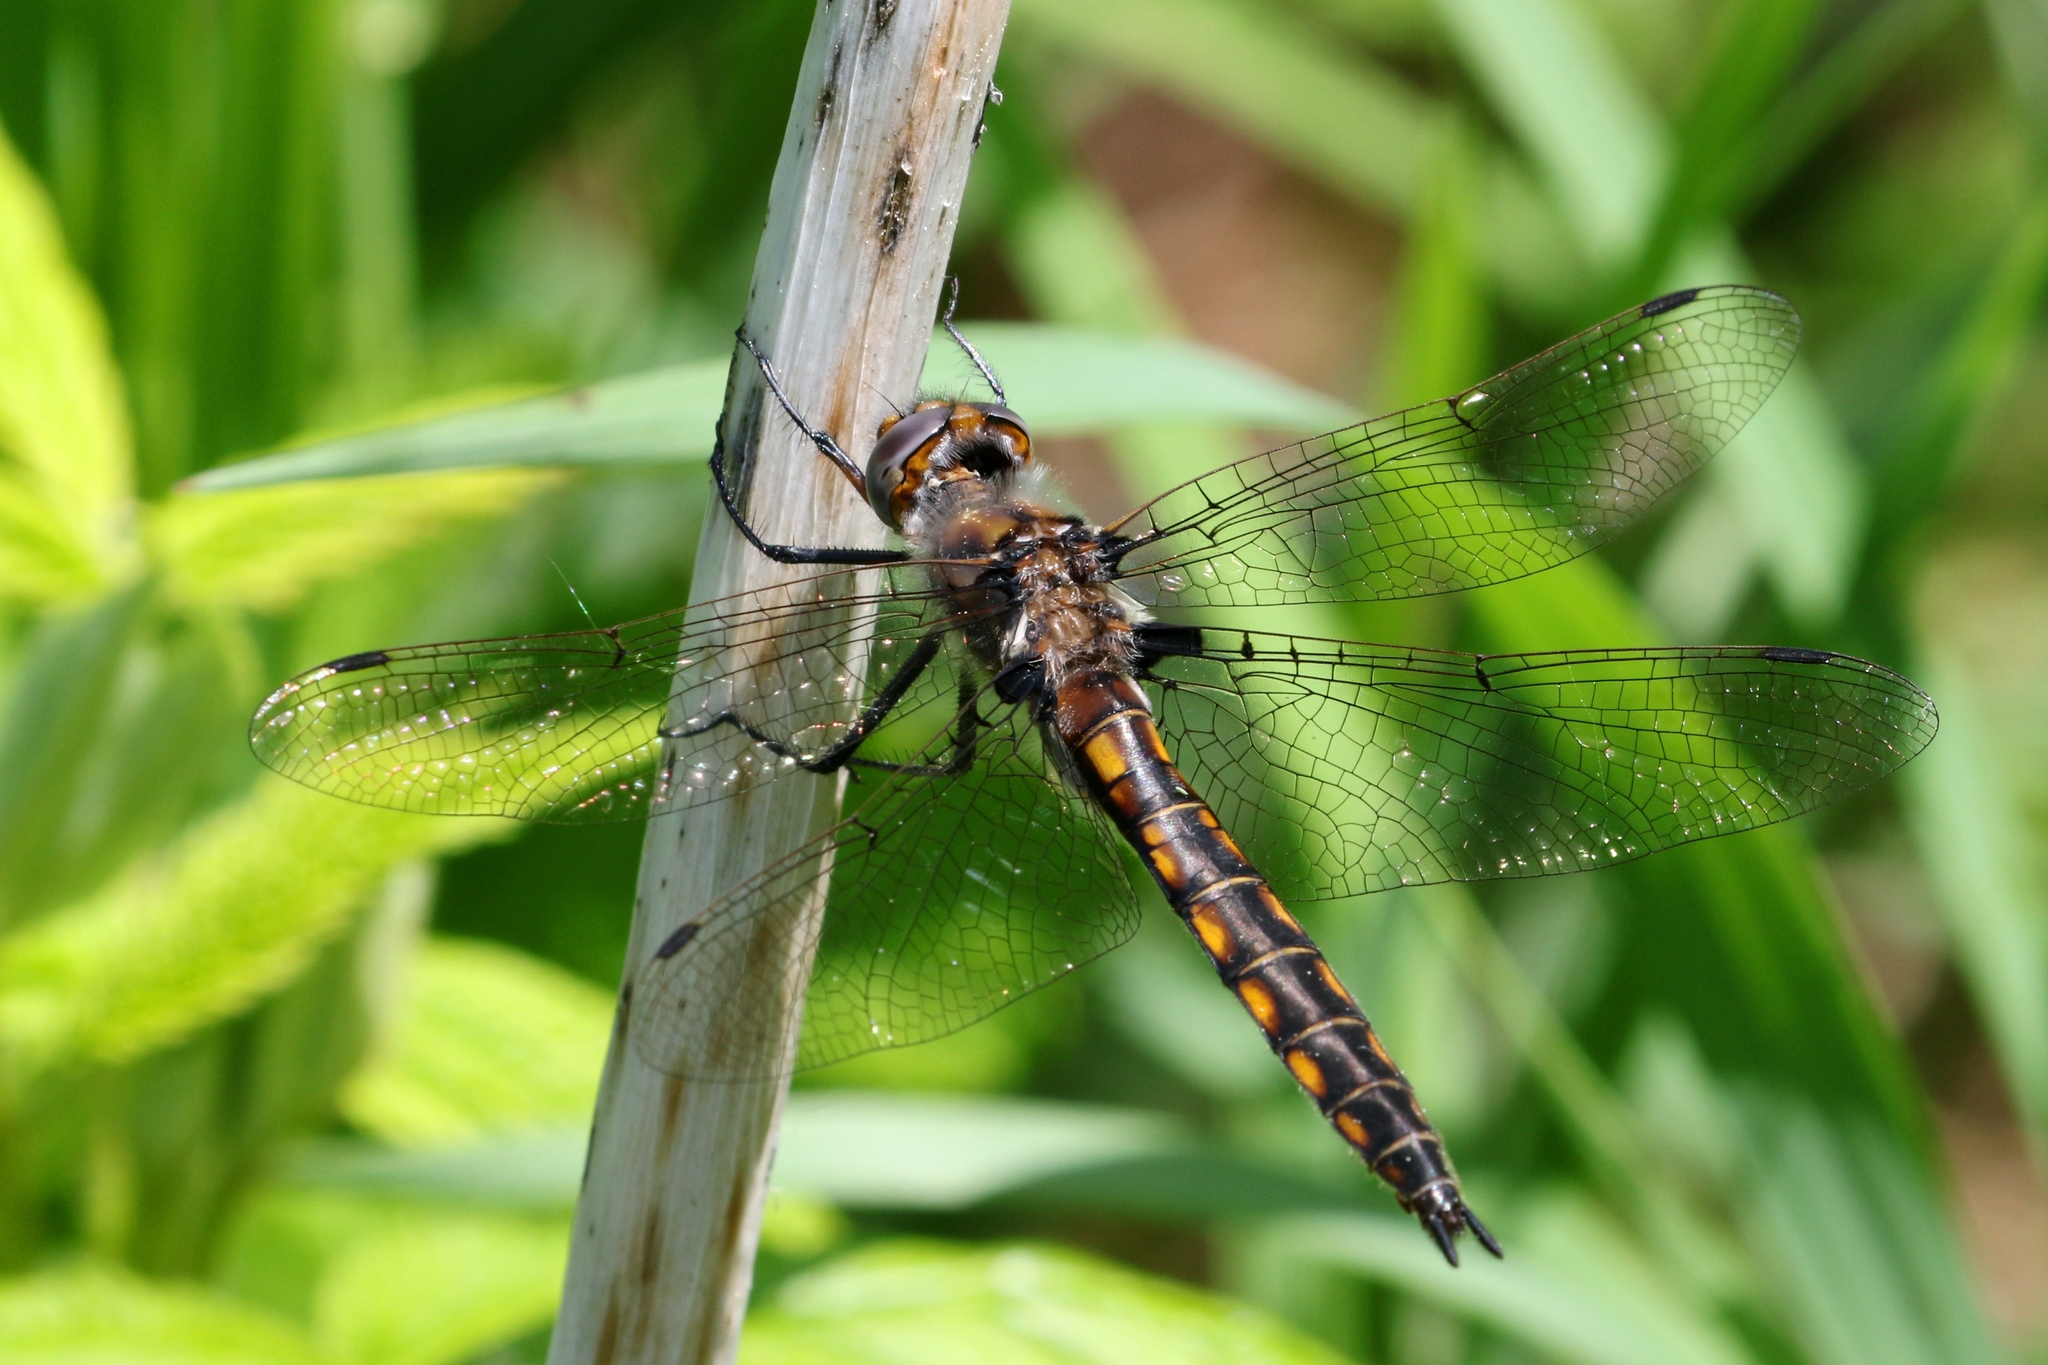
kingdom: Animalia
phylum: Arthropoda
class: Insecta
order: Odonata
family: Corduliidae
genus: Epitheca
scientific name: Epitheca canis
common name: Beaverpond baskettail
